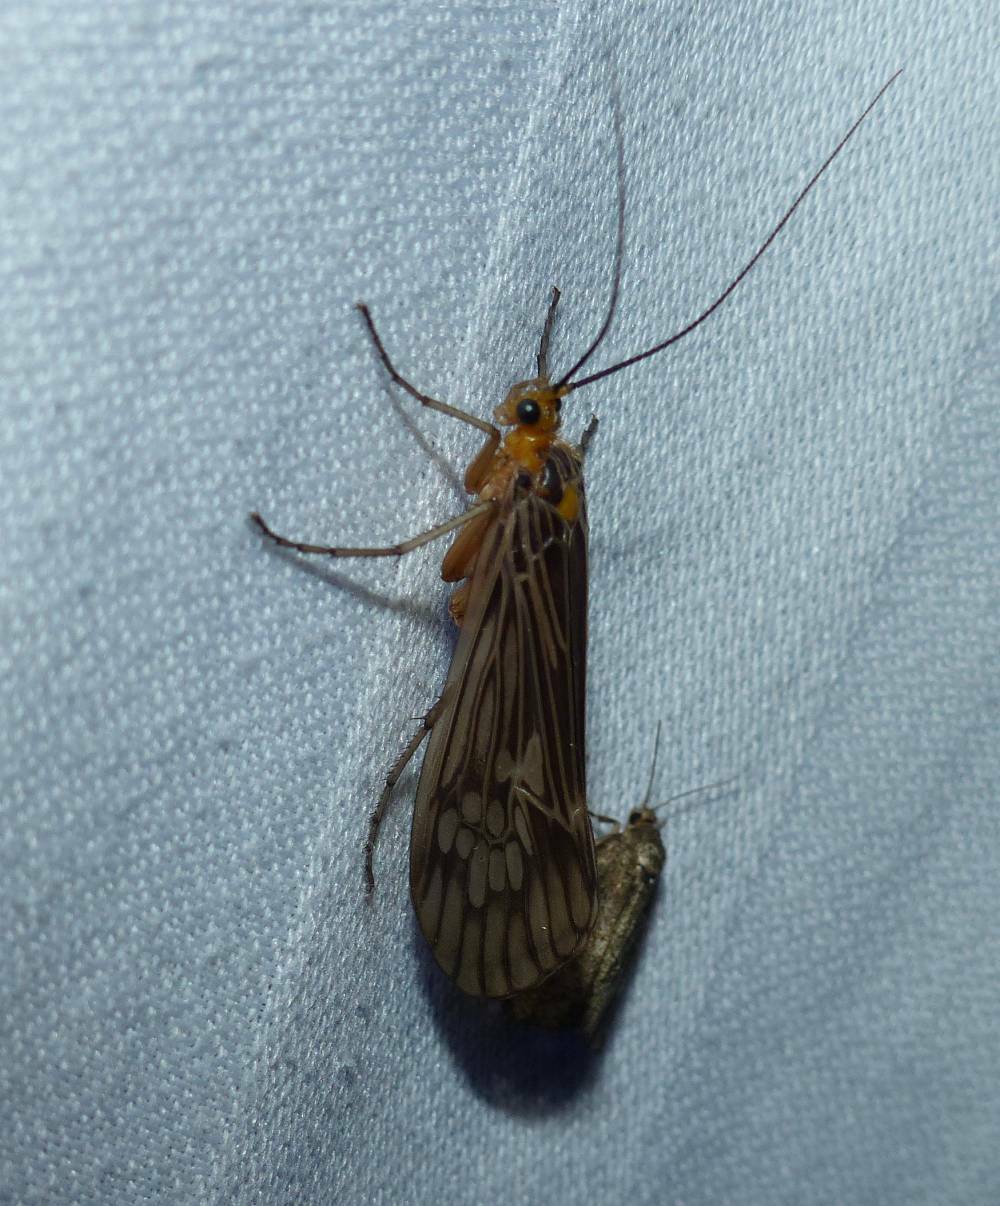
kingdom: Animalia
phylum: Arthropoda
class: Insecta
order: Trichoptera
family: Limnephilidae
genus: Hydatophylax
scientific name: Hydatophylax argus
